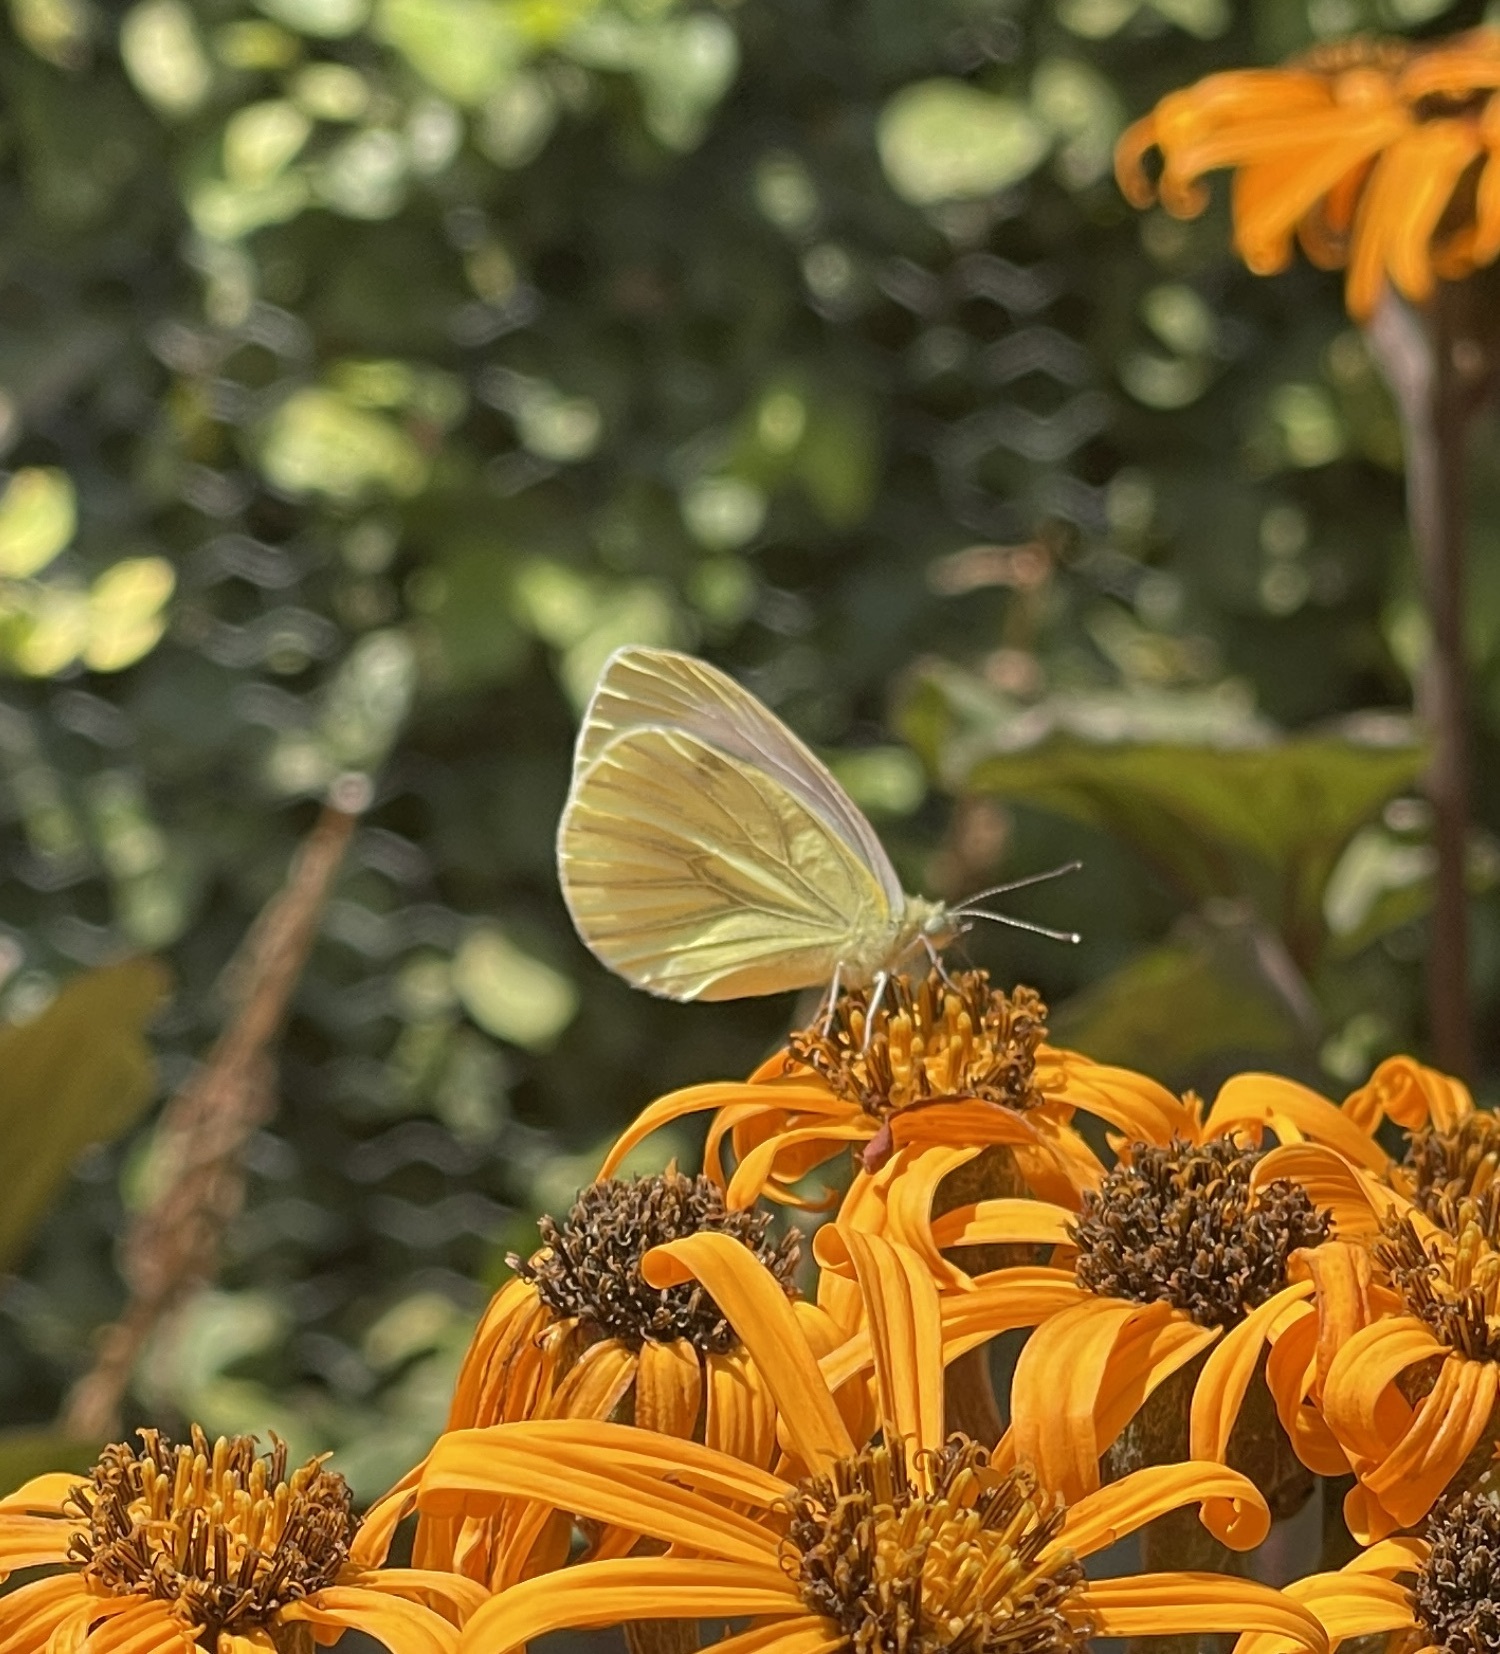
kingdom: Animalia
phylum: Arthropoda
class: Insecta
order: Lepidoptera
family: Pieridae
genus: Pieris
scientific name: Pieris napi
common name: Green-veined white
